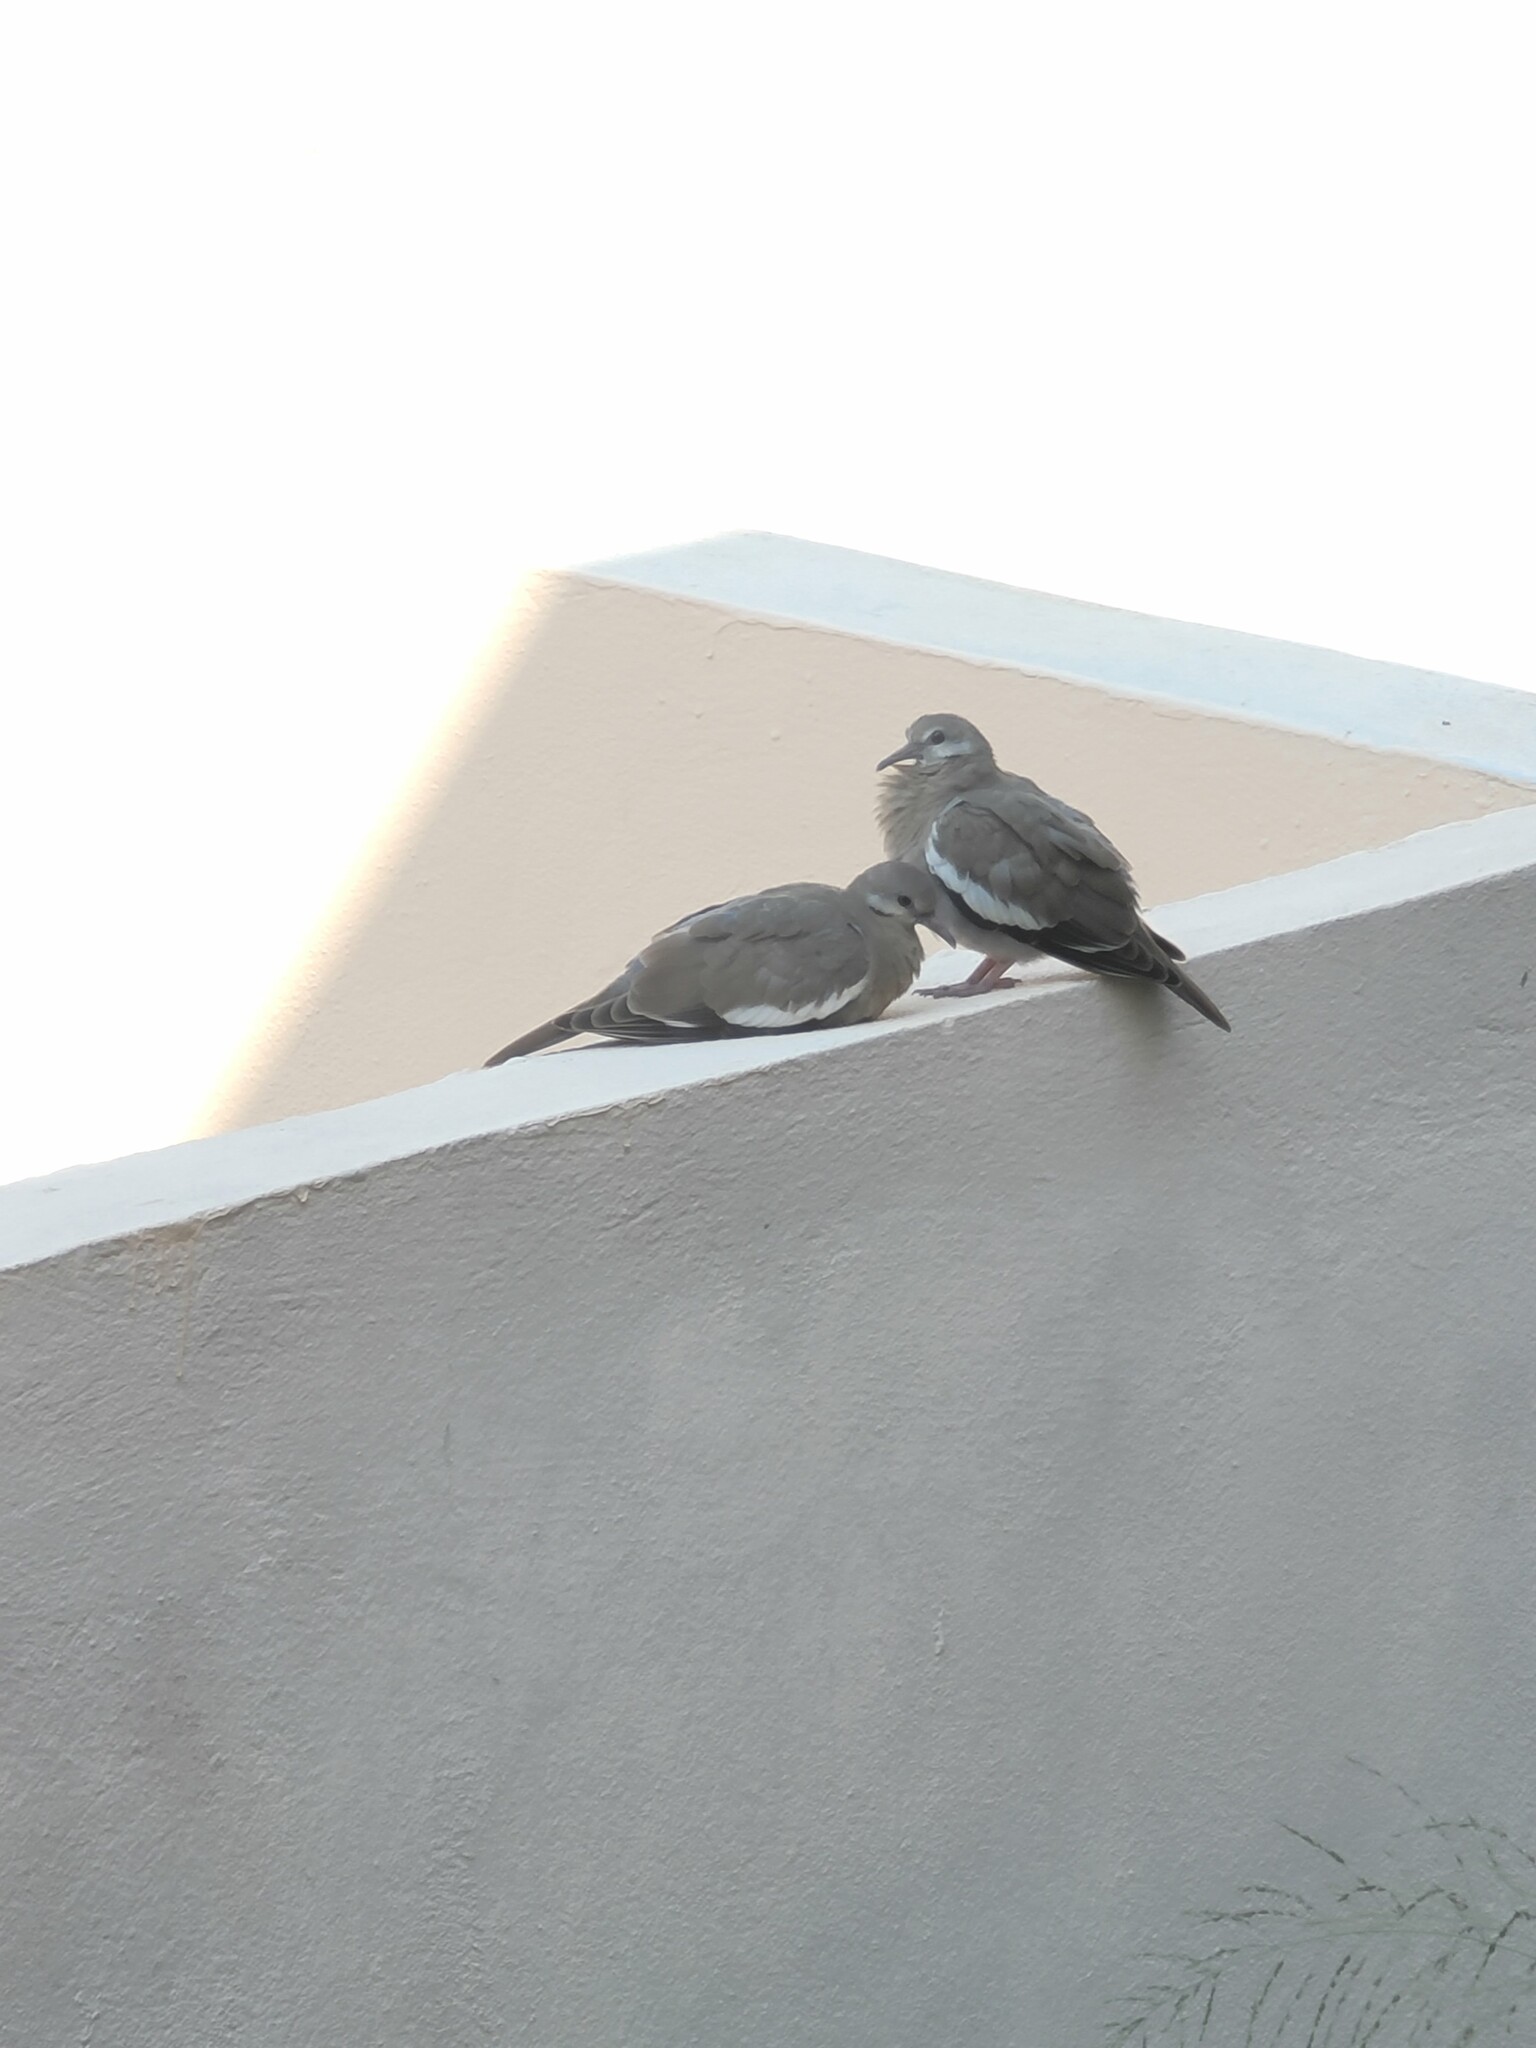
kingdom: Animalia
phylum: Chordata
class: Aves
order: Columbiformes
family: Columbidae
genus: Zenaida
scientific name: Zenaida asiatica
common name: White-winged dove
